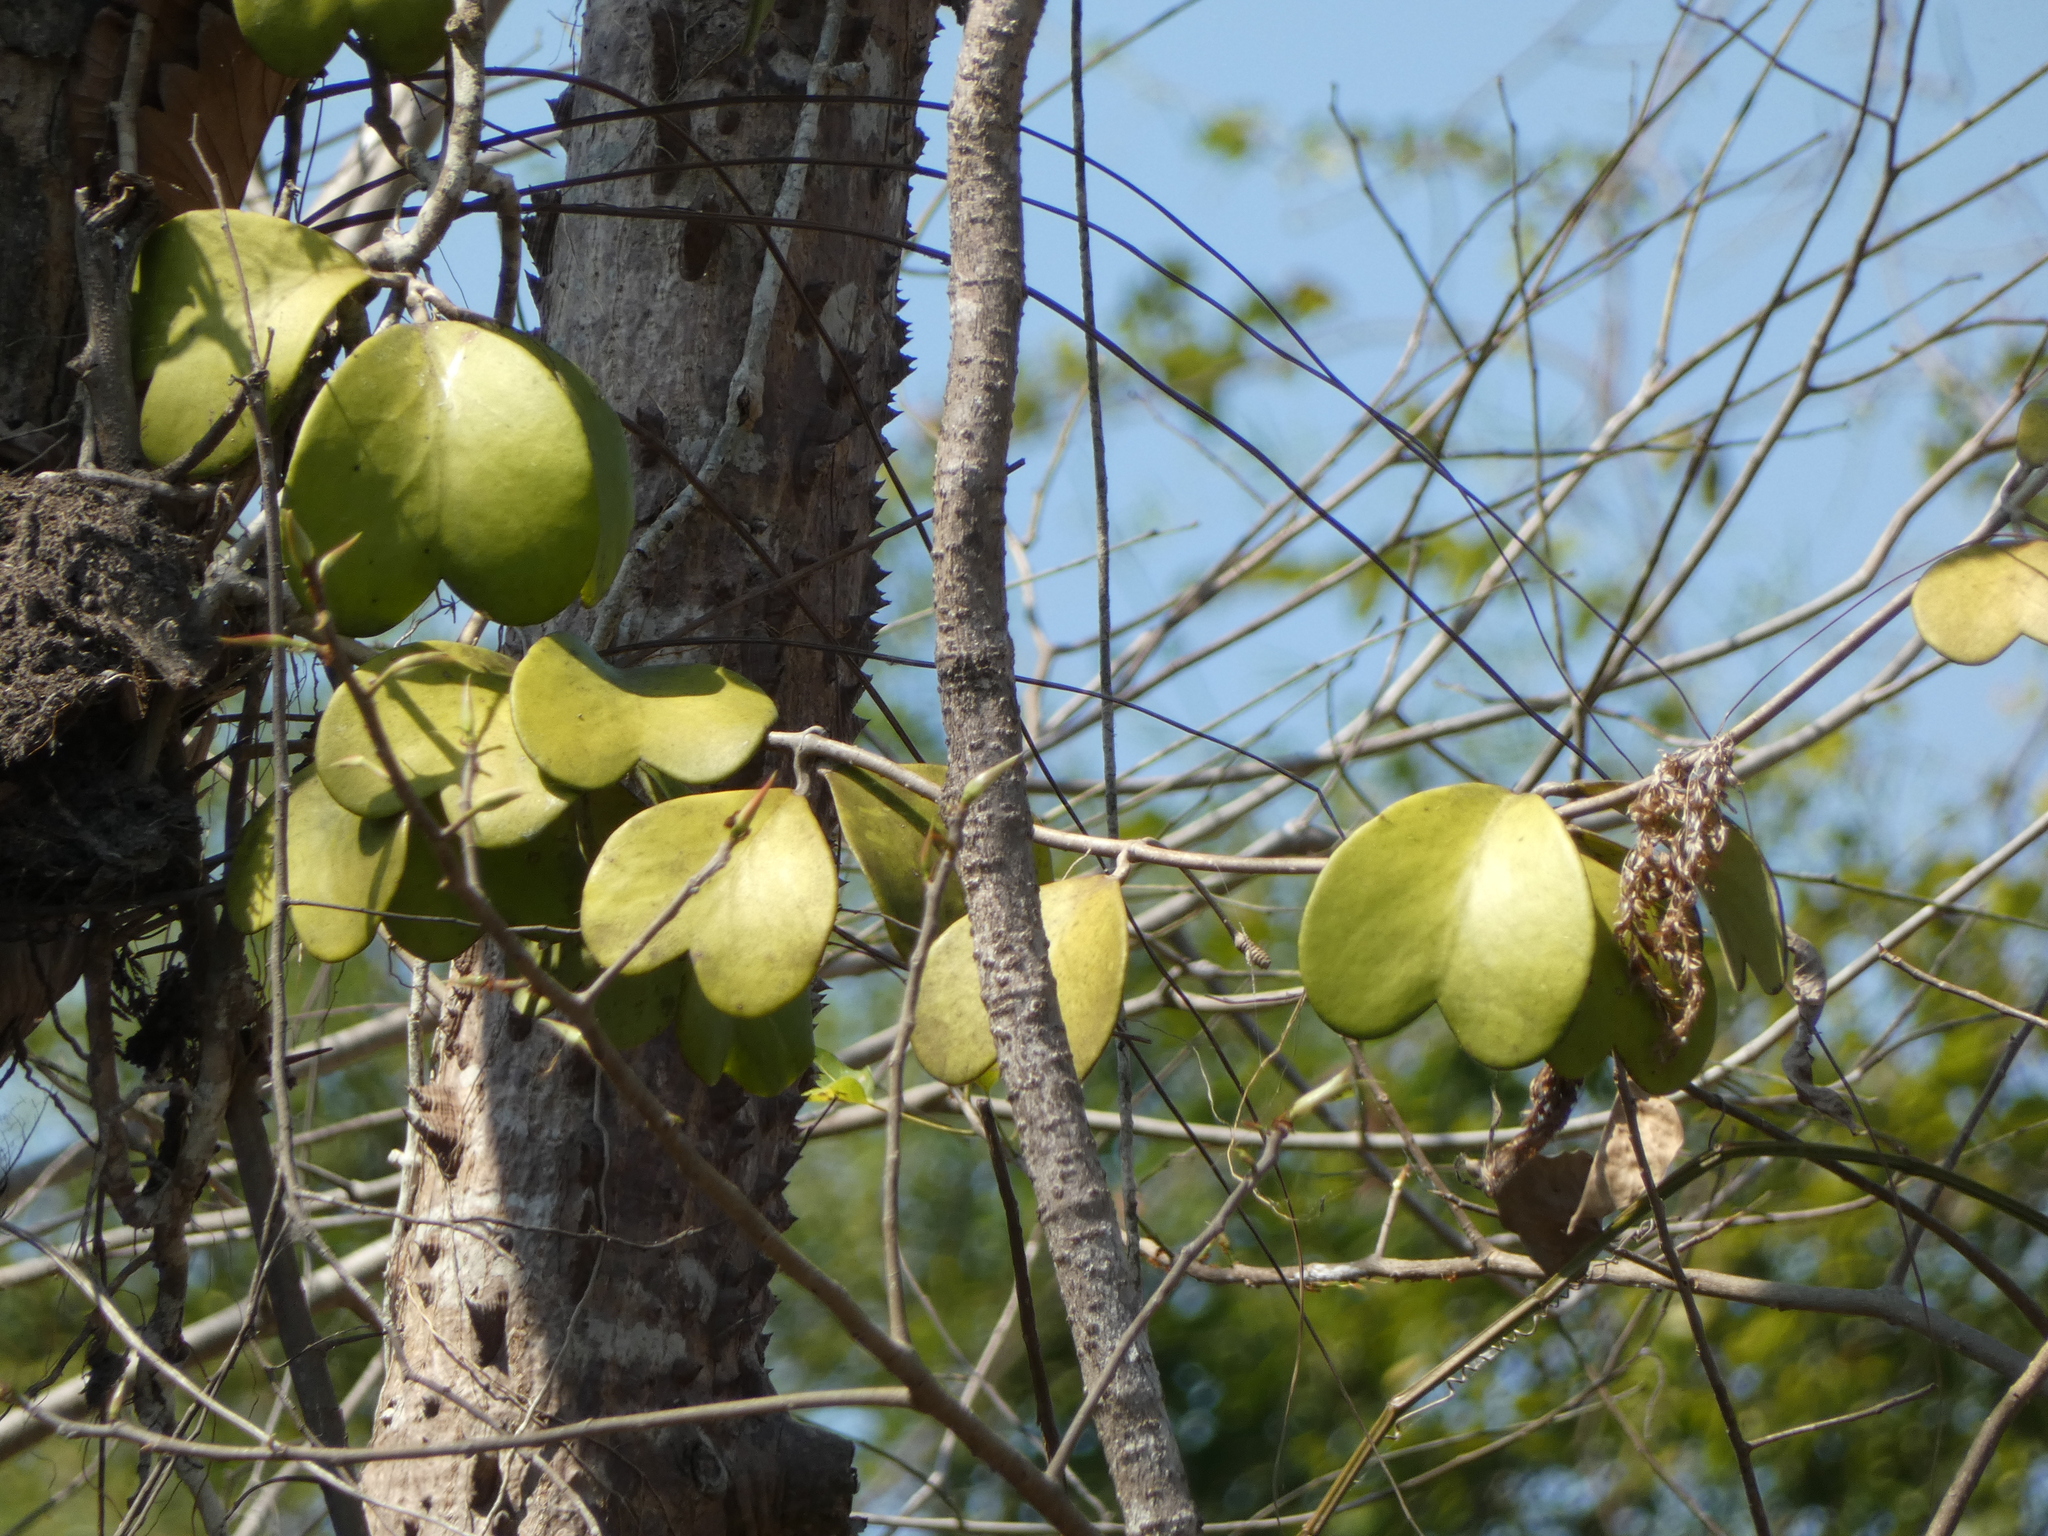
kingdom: Plantae
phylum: Tracheophyta
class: Magnoliopsida
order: Gentianales
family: Apocynaceae
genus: Hoya
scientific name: Hoya kerrii
